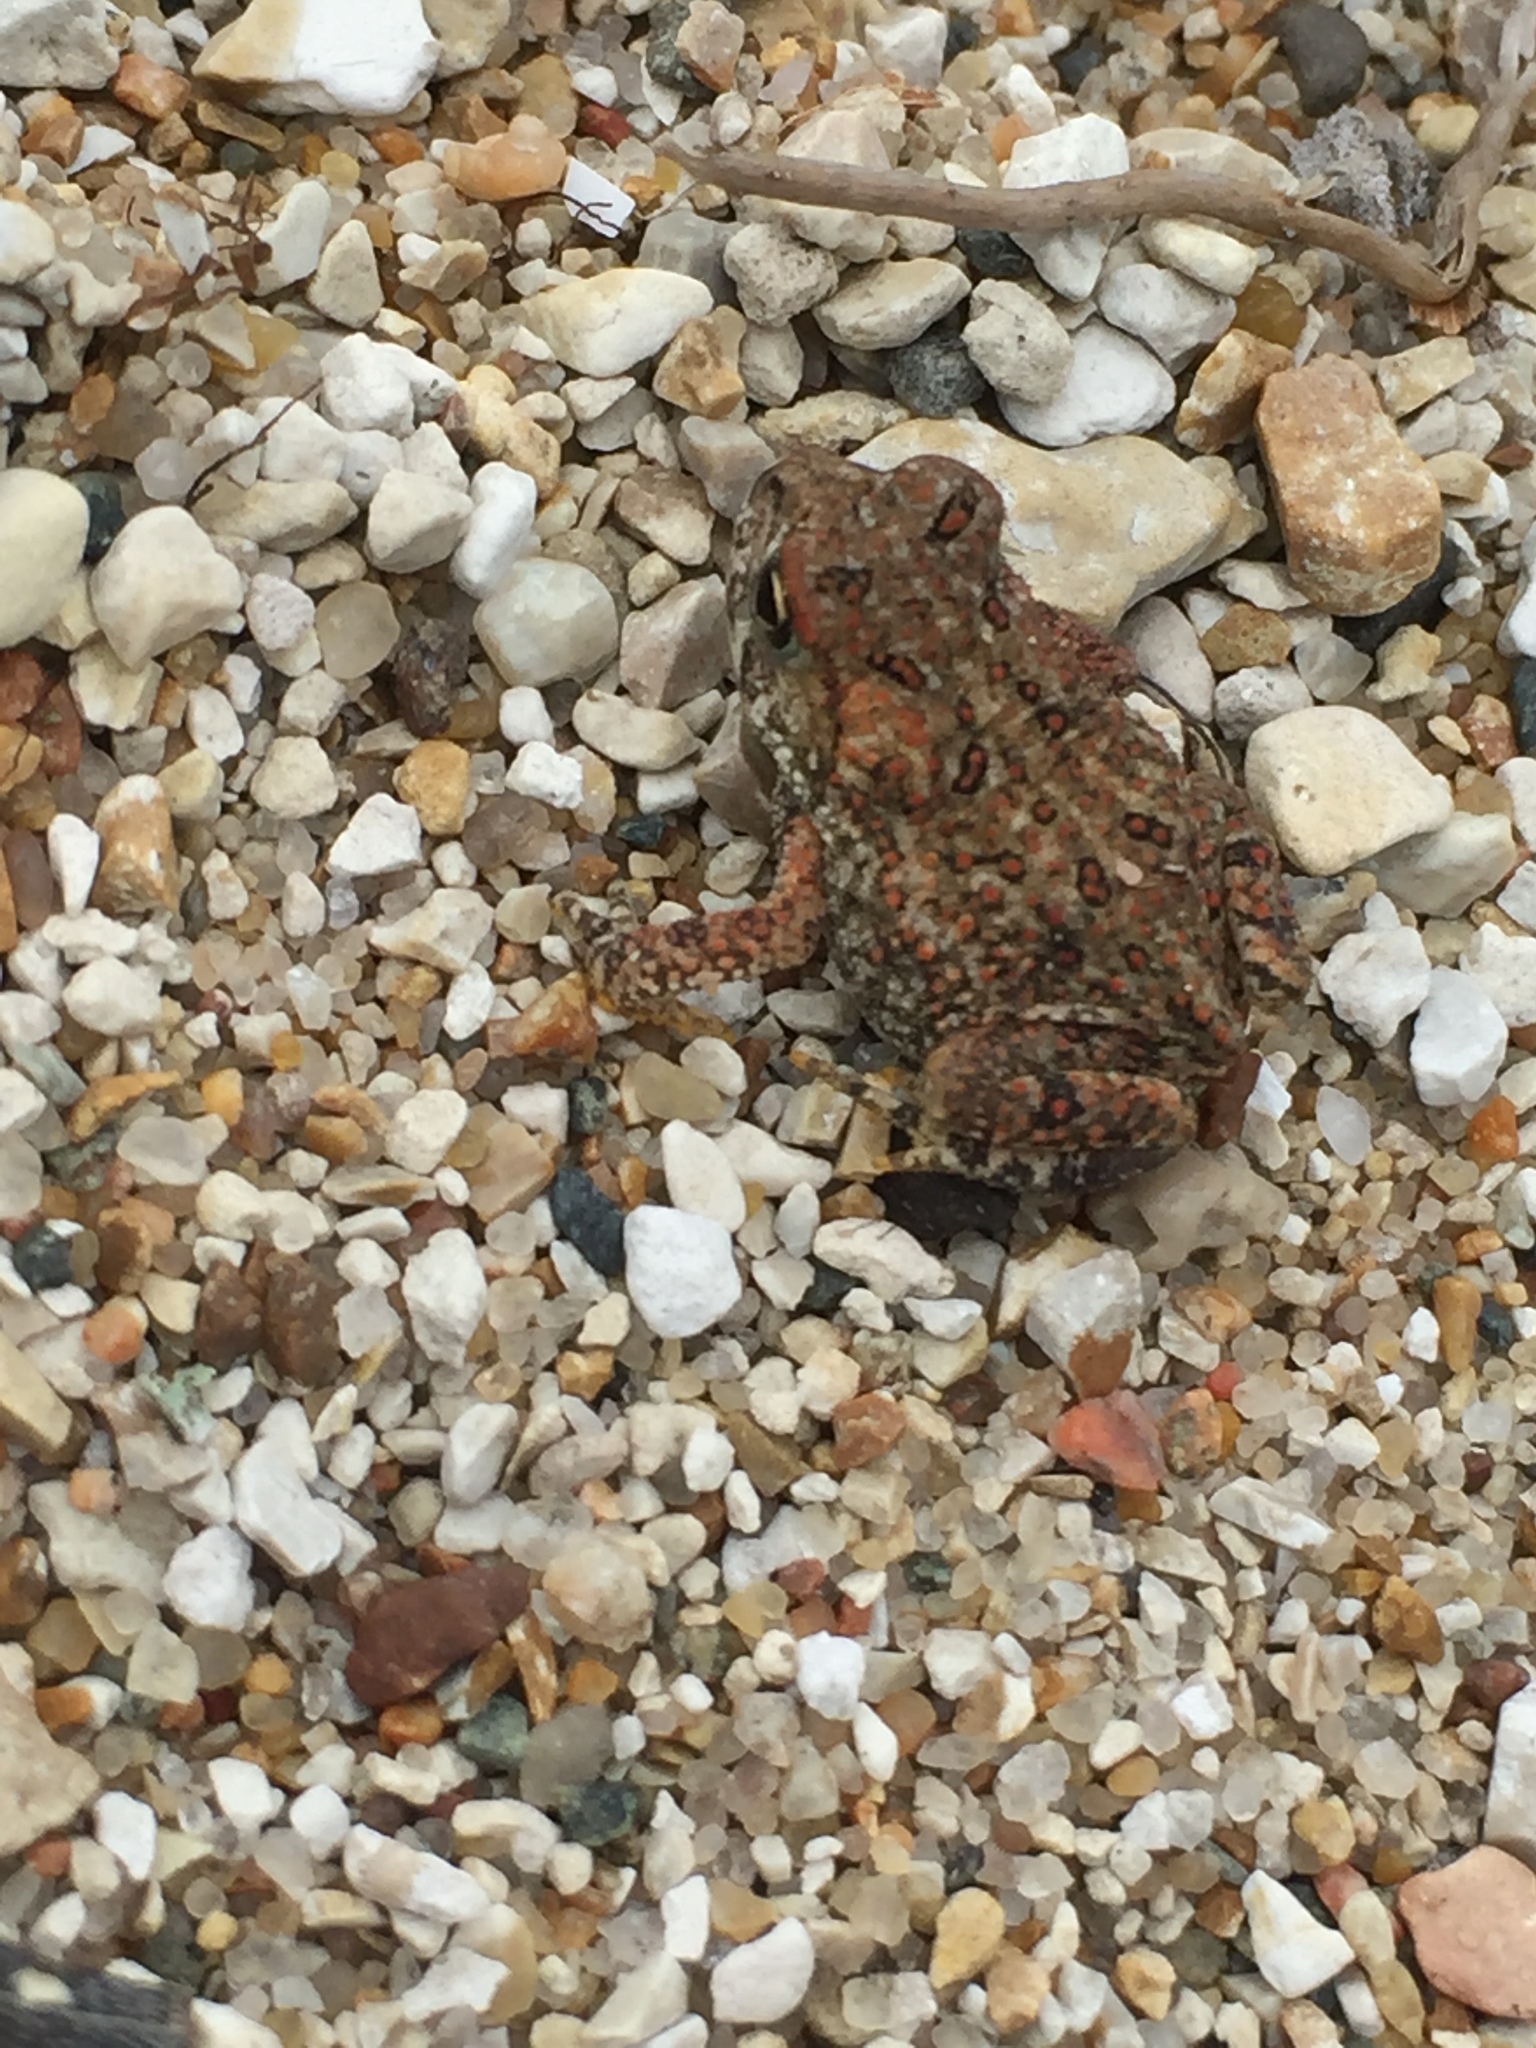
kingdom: Animalia
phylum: Chordata
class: Amphibia
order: Anura
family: Bufonidae
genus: Anaxyrus
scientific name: Anaxyrus americanus
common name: American toad
